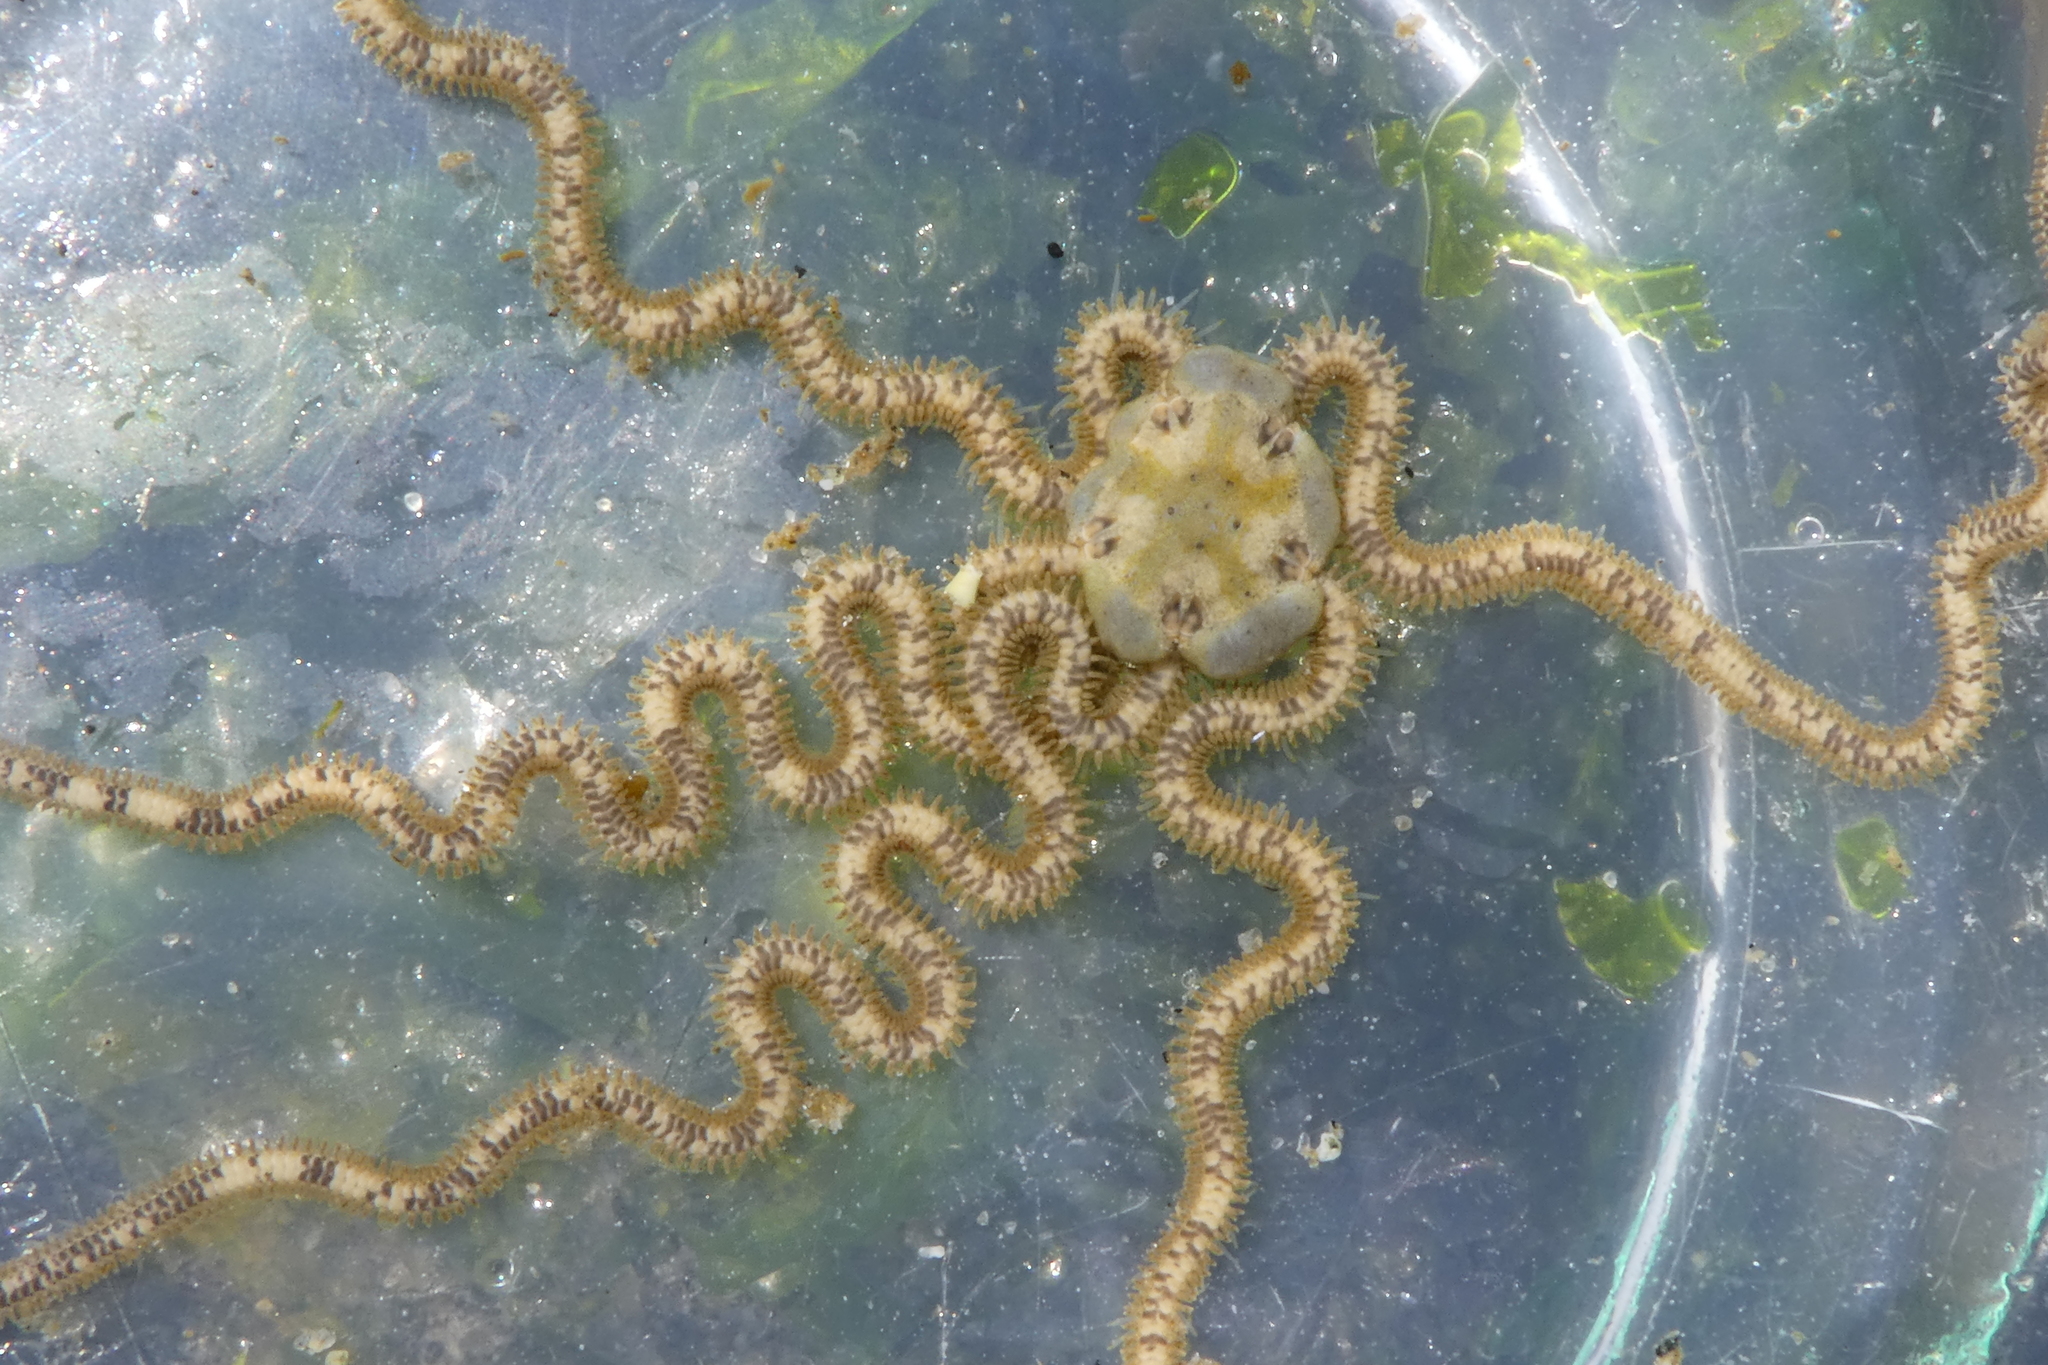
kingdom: Animalia
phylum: Echinodermata
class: Ophiuroidea
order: Amphilepidida
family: Amphiuridae
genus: Amphiodia
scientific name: Amphiodia occidentalis
